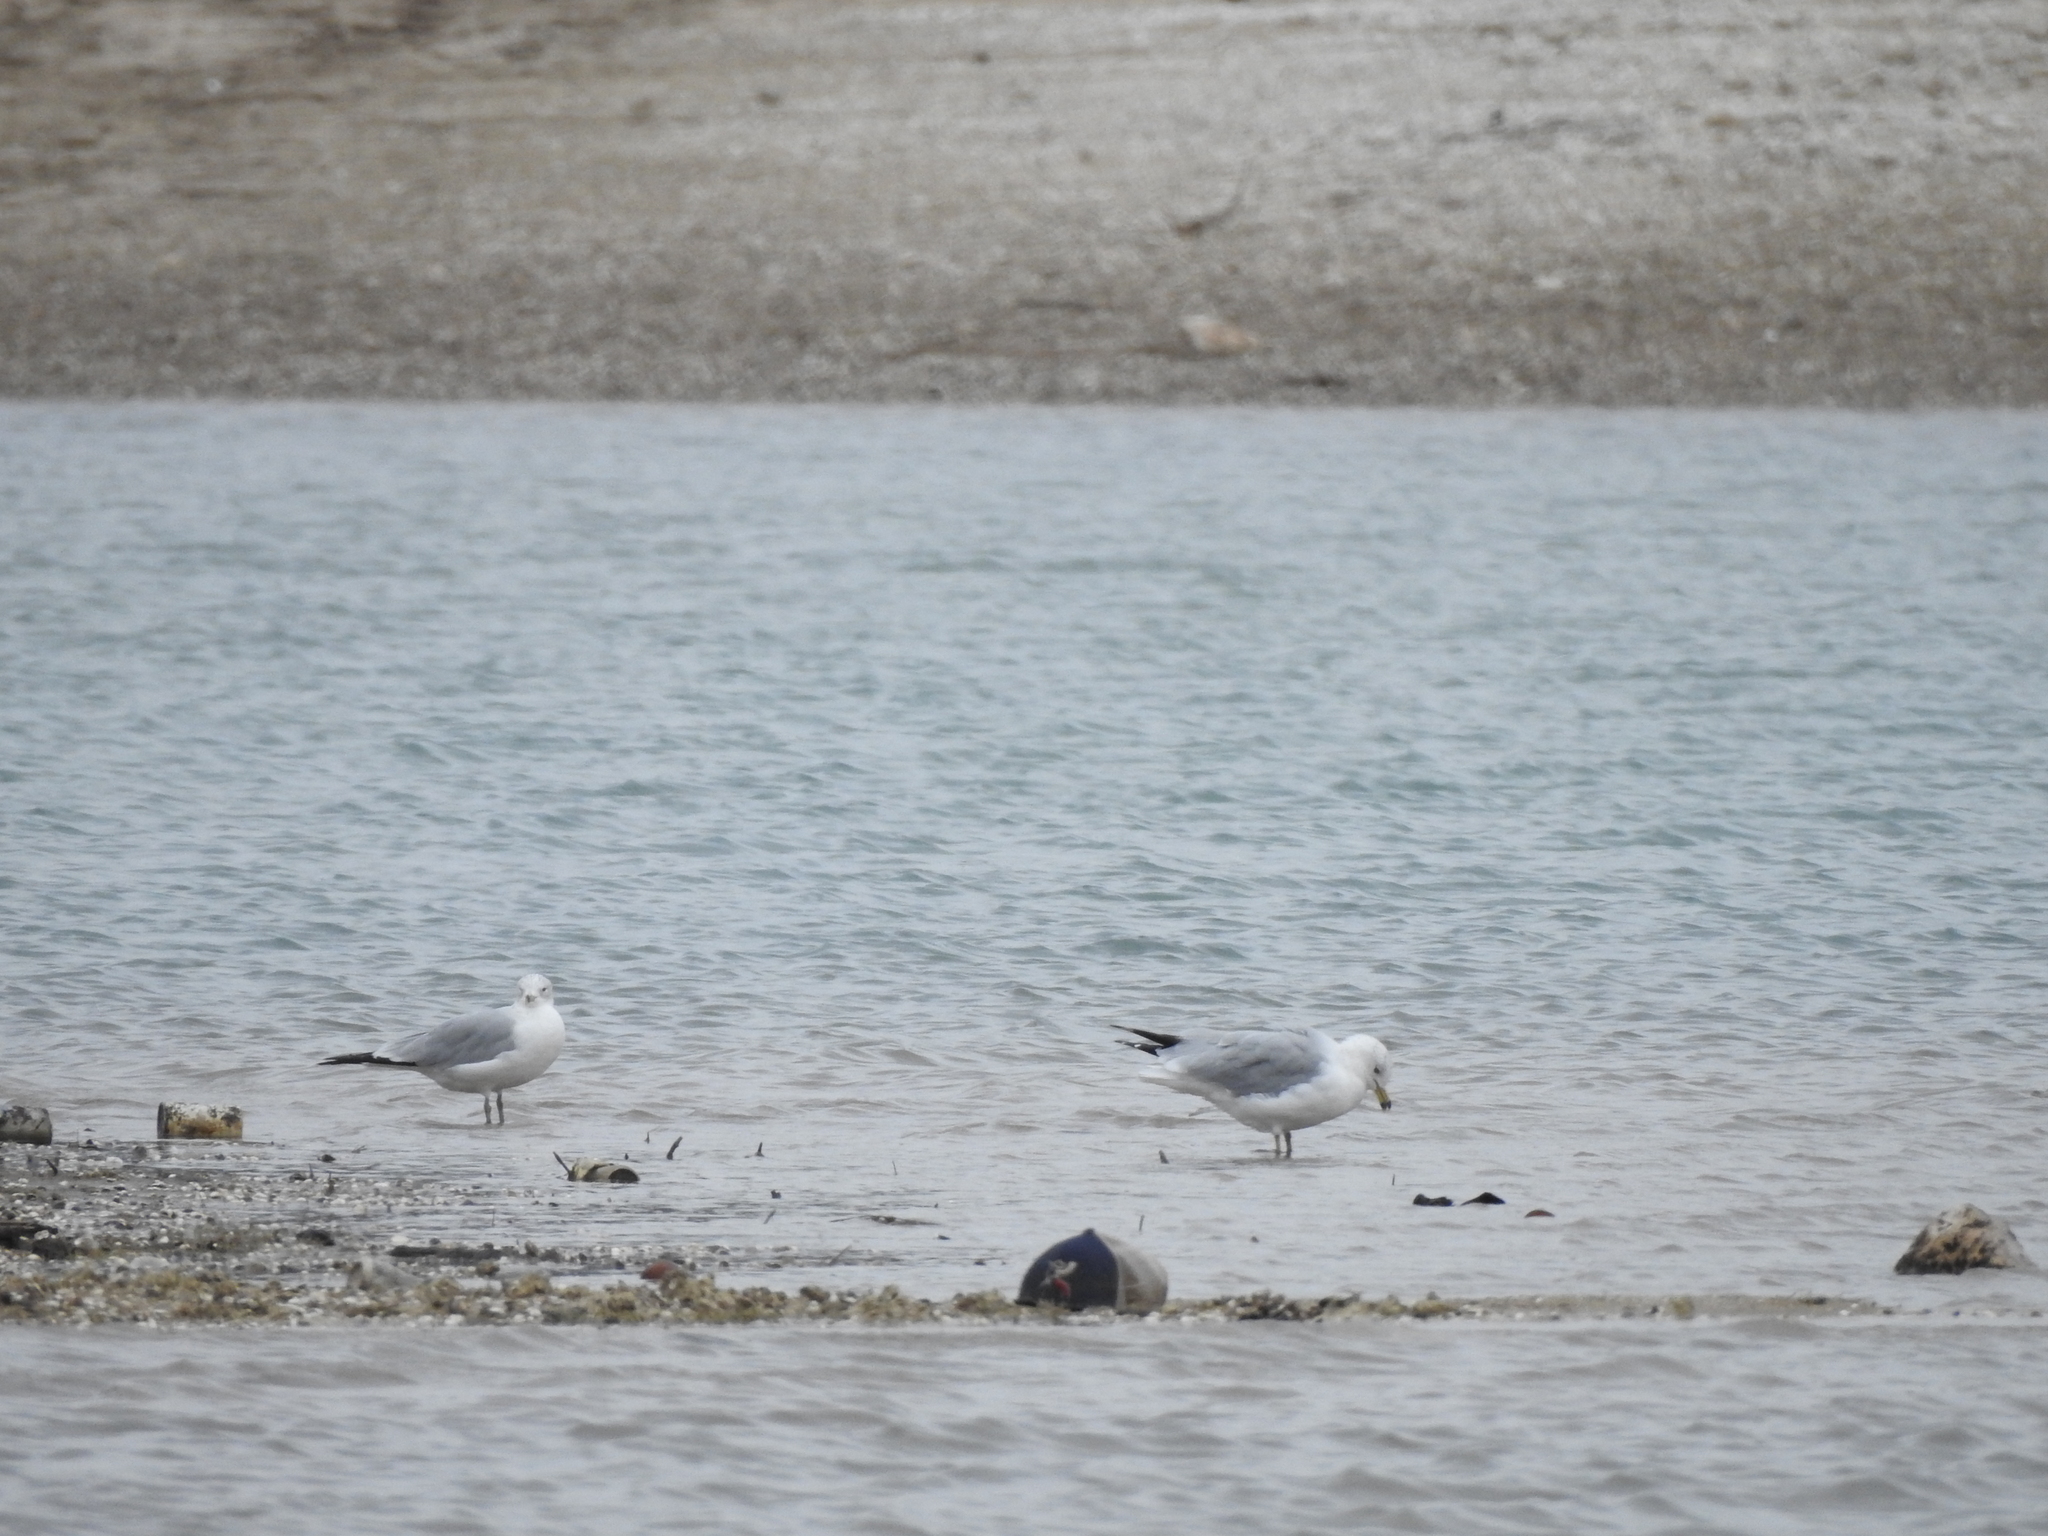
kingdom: Animalia
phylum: Chordata
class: Aves
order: Charadriiformes
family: Laridae
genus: Larus
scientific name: Larus delawarensis
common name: Ring-billed gull
